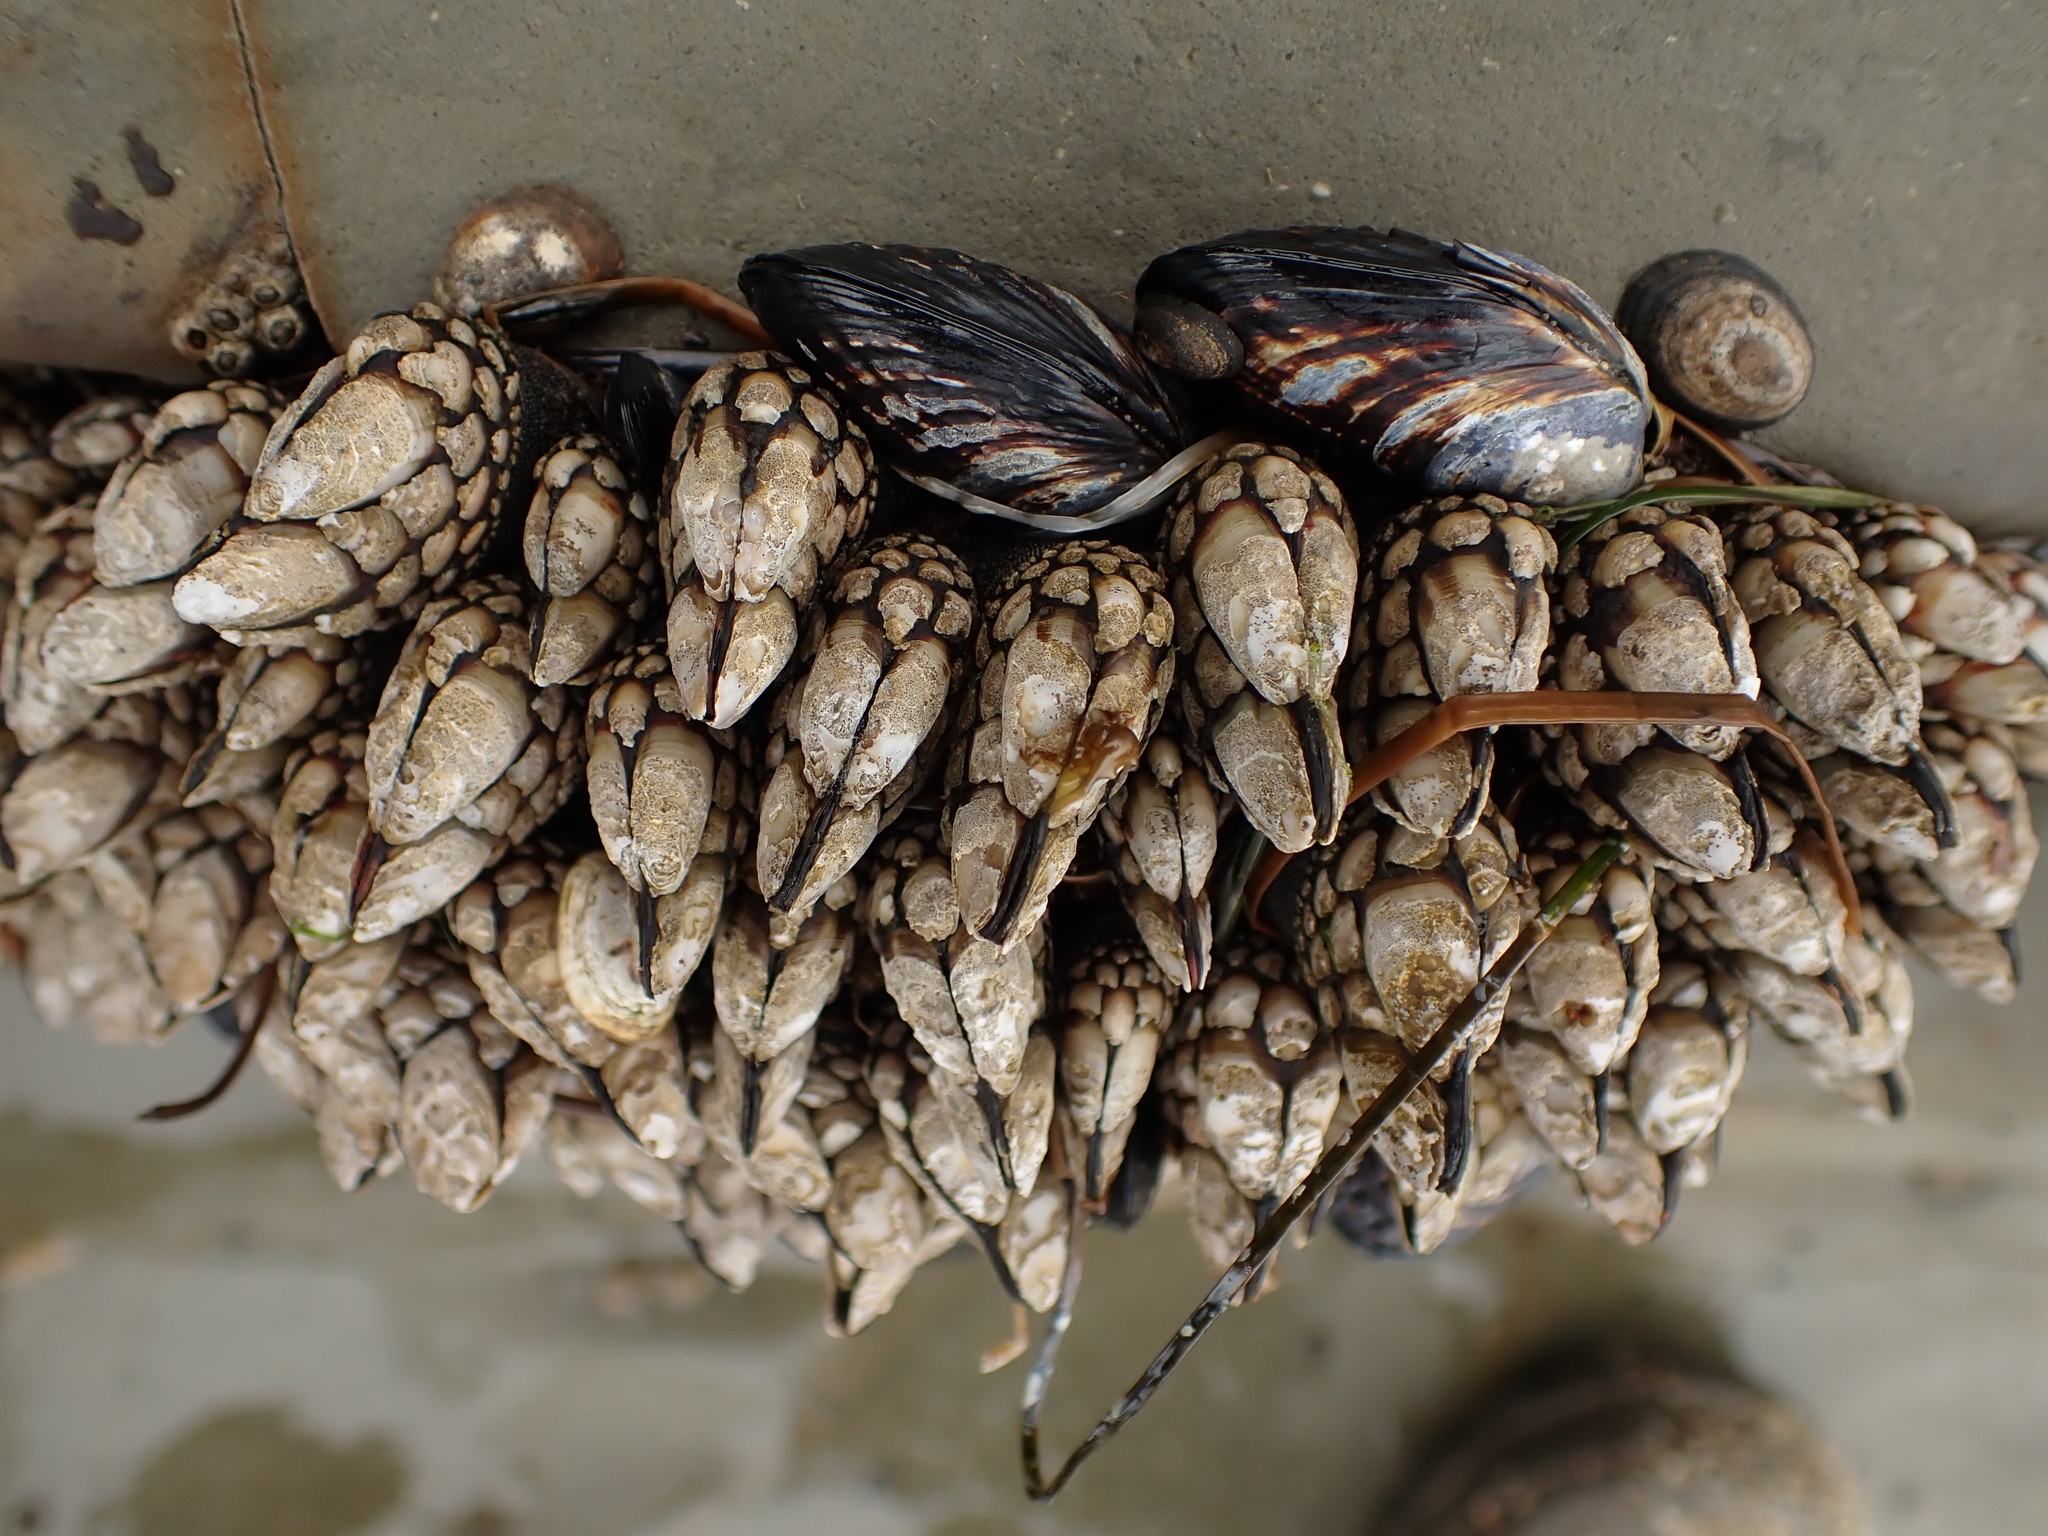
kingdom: Animalia
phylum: Arthropoda
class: Maxillopoda
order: Pedunculata
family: Pollicipedidae
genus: Pollicipes
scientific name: Pollicipes polymerus
